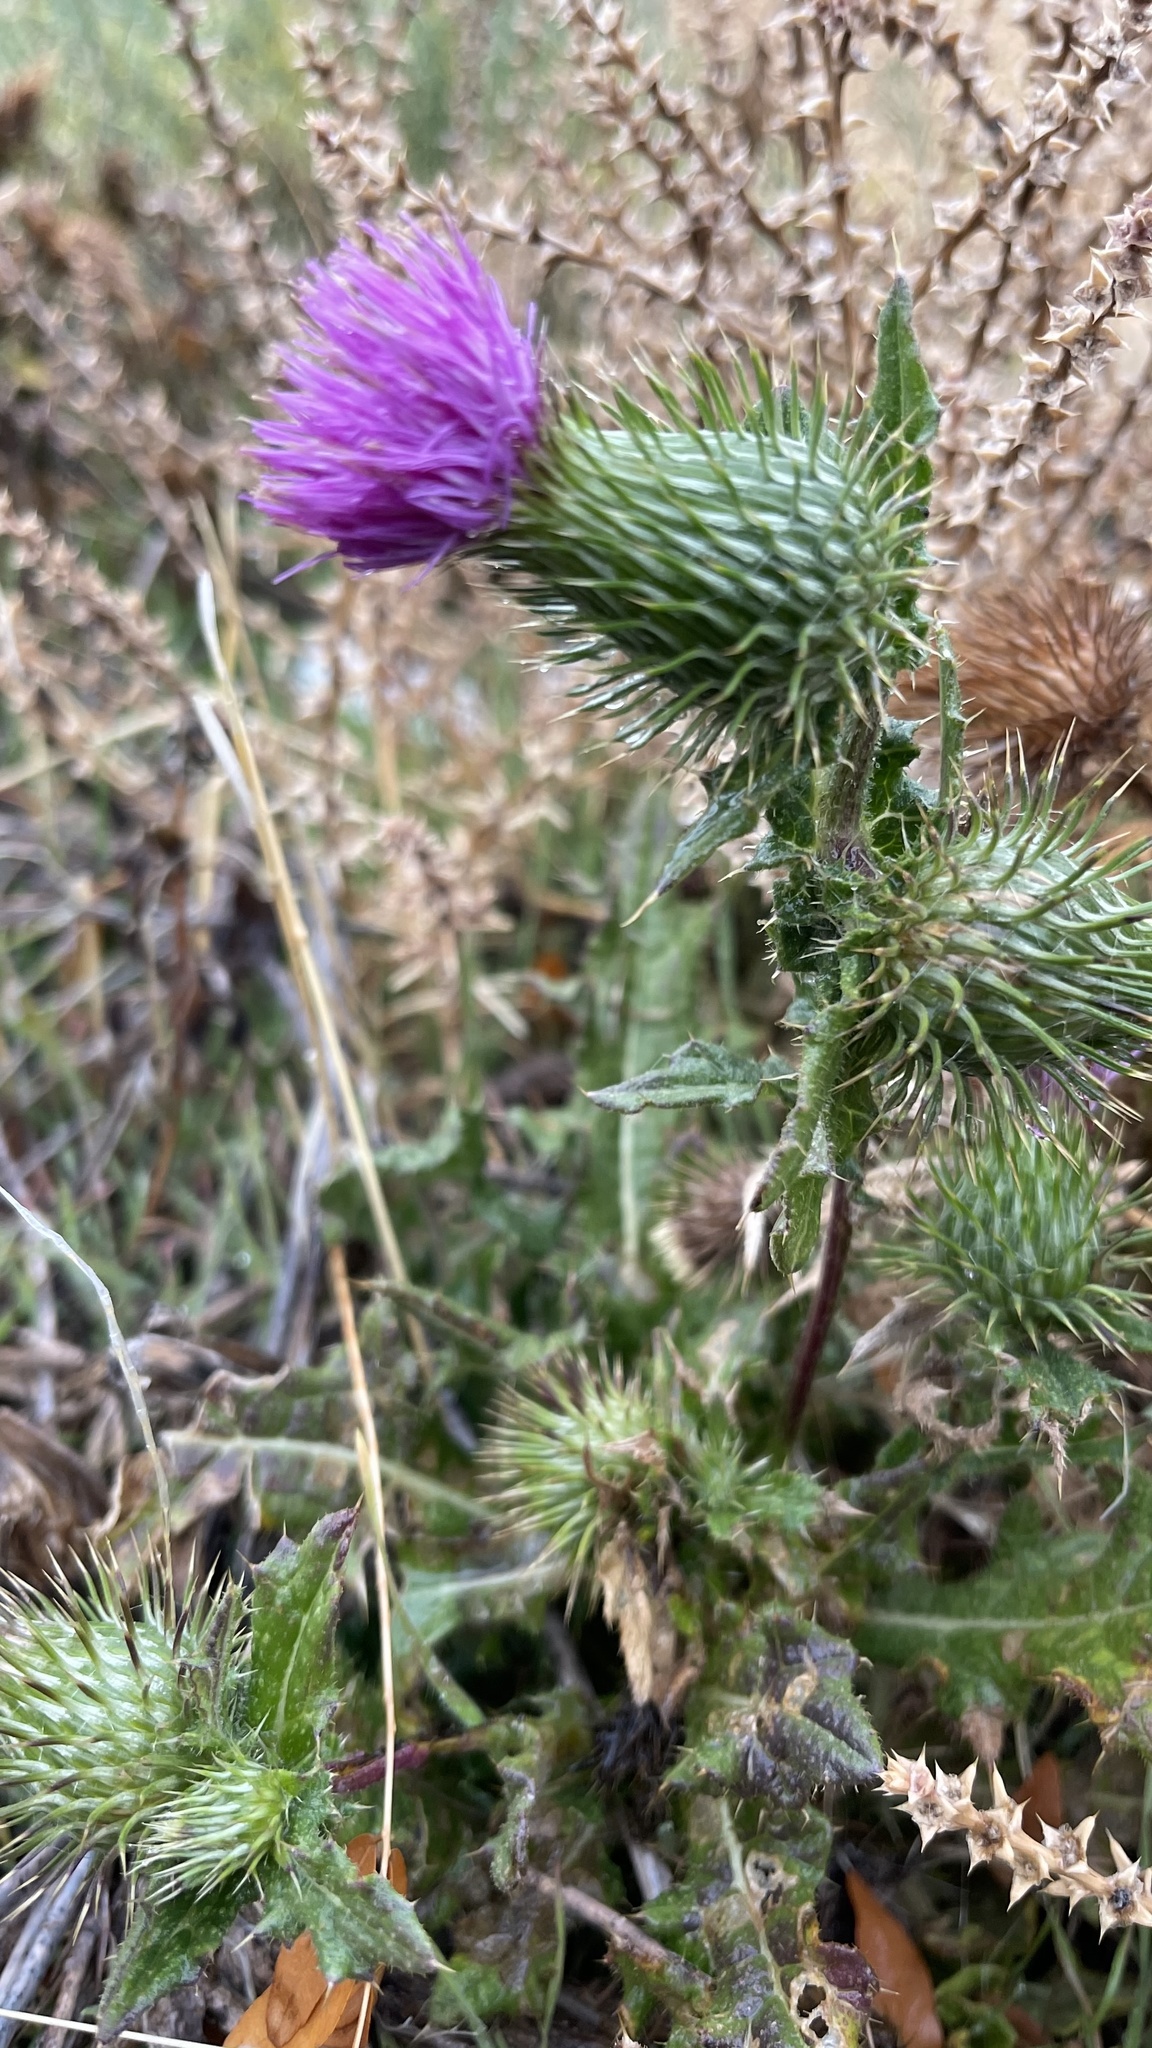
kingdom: Plantae
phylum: Tracheophyta
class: Magnoliopsida
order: Asterales
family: Asteraceae
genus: Cirsium
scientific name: Cirsium vulgare
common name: Bull thistle
